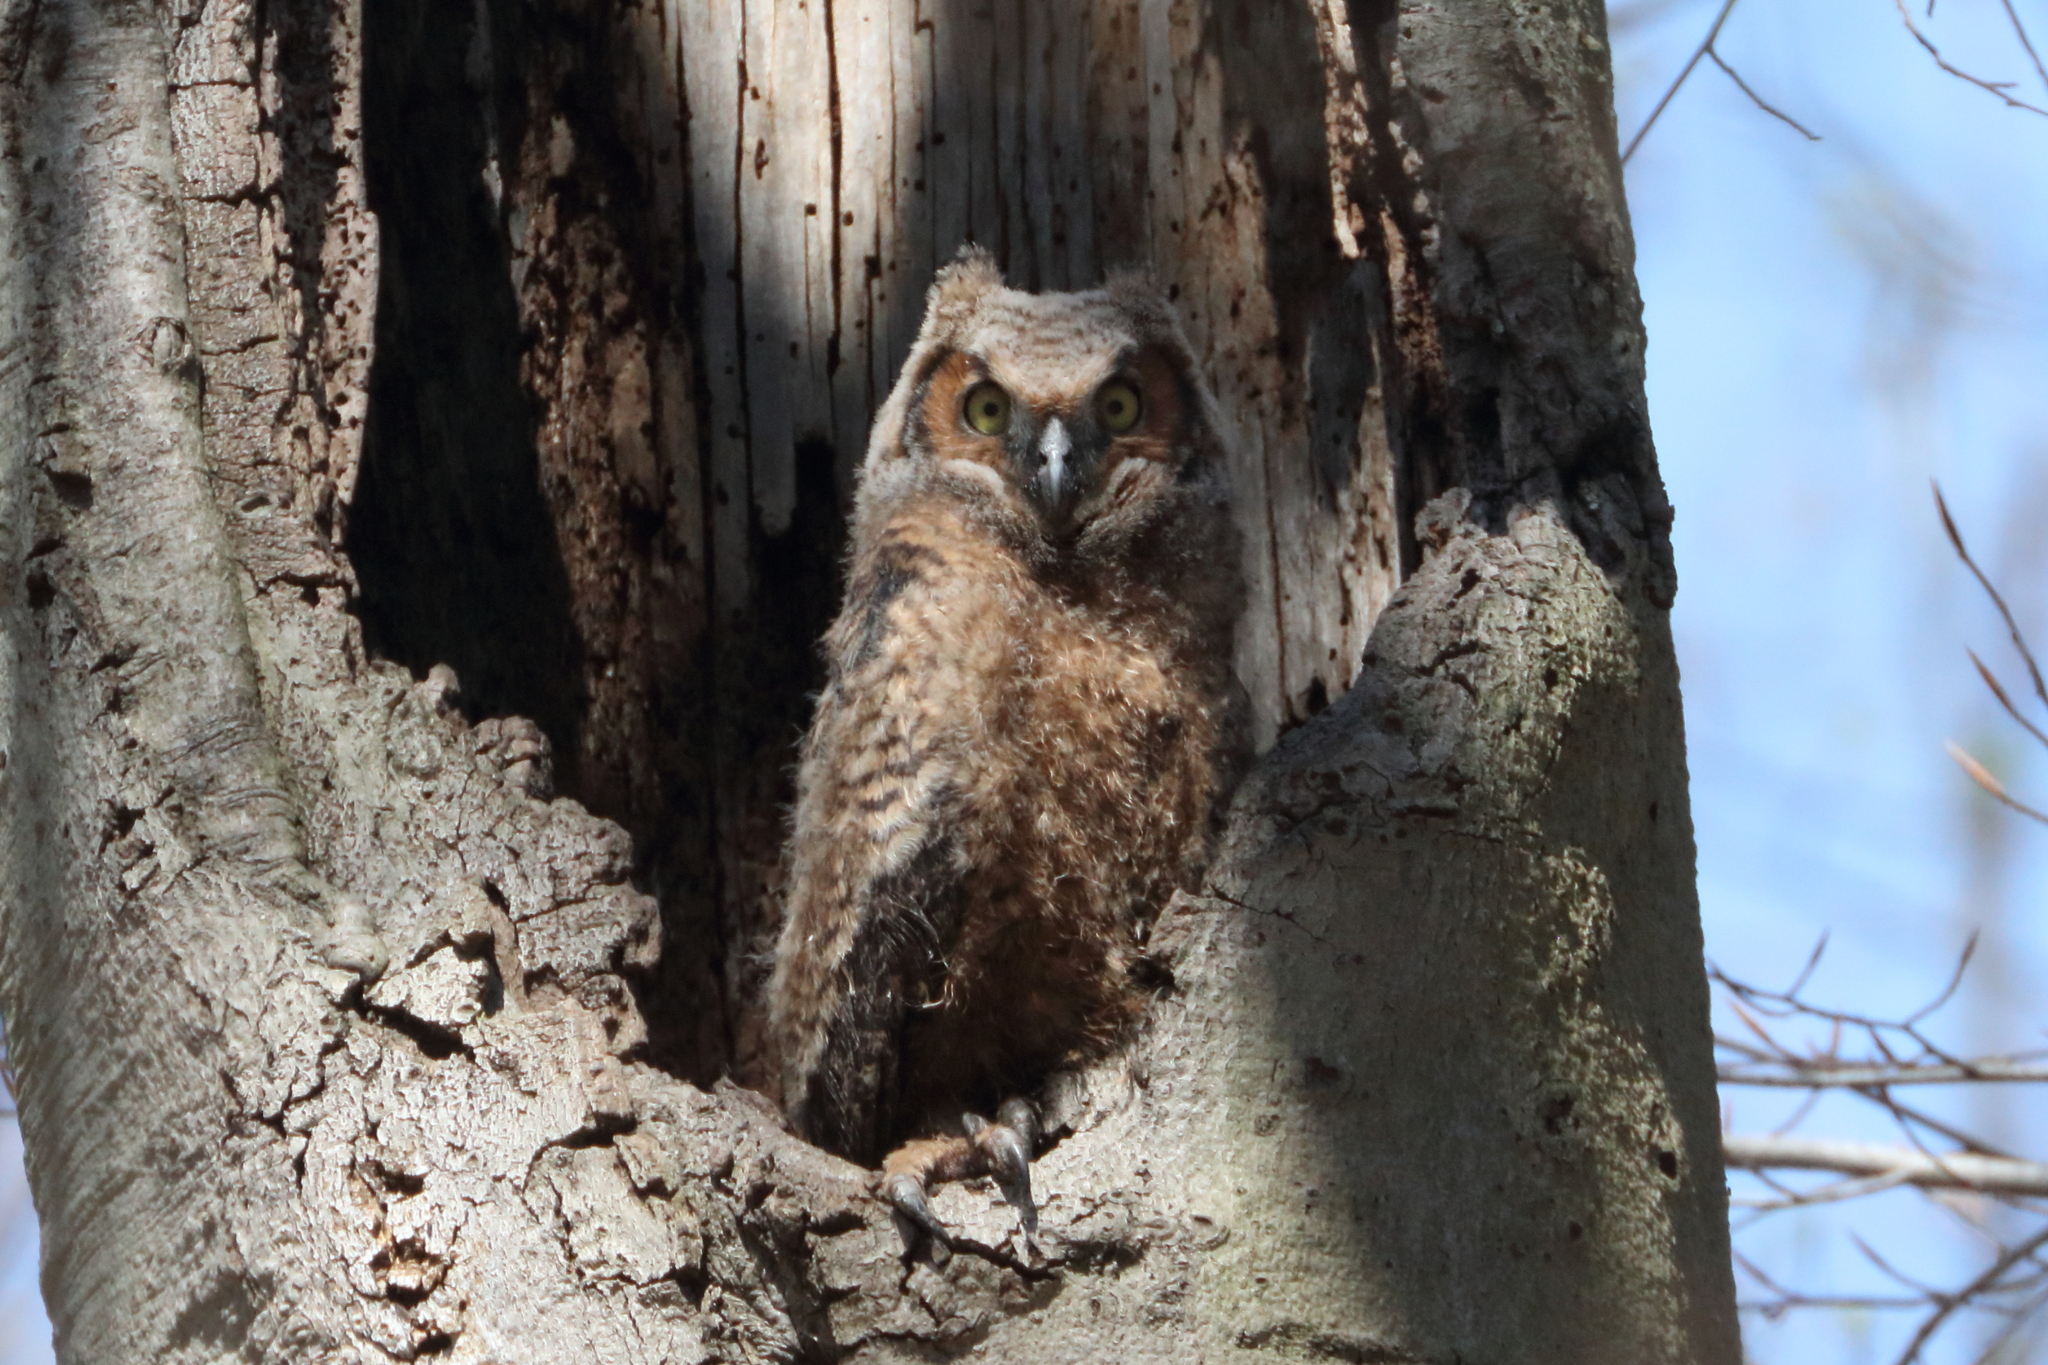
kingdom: Animalia
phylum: Chordata
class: Aves
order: Strigiformes
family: Strigidae
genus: Bubo
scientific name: Bubo virginianus
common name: Great horned owl
